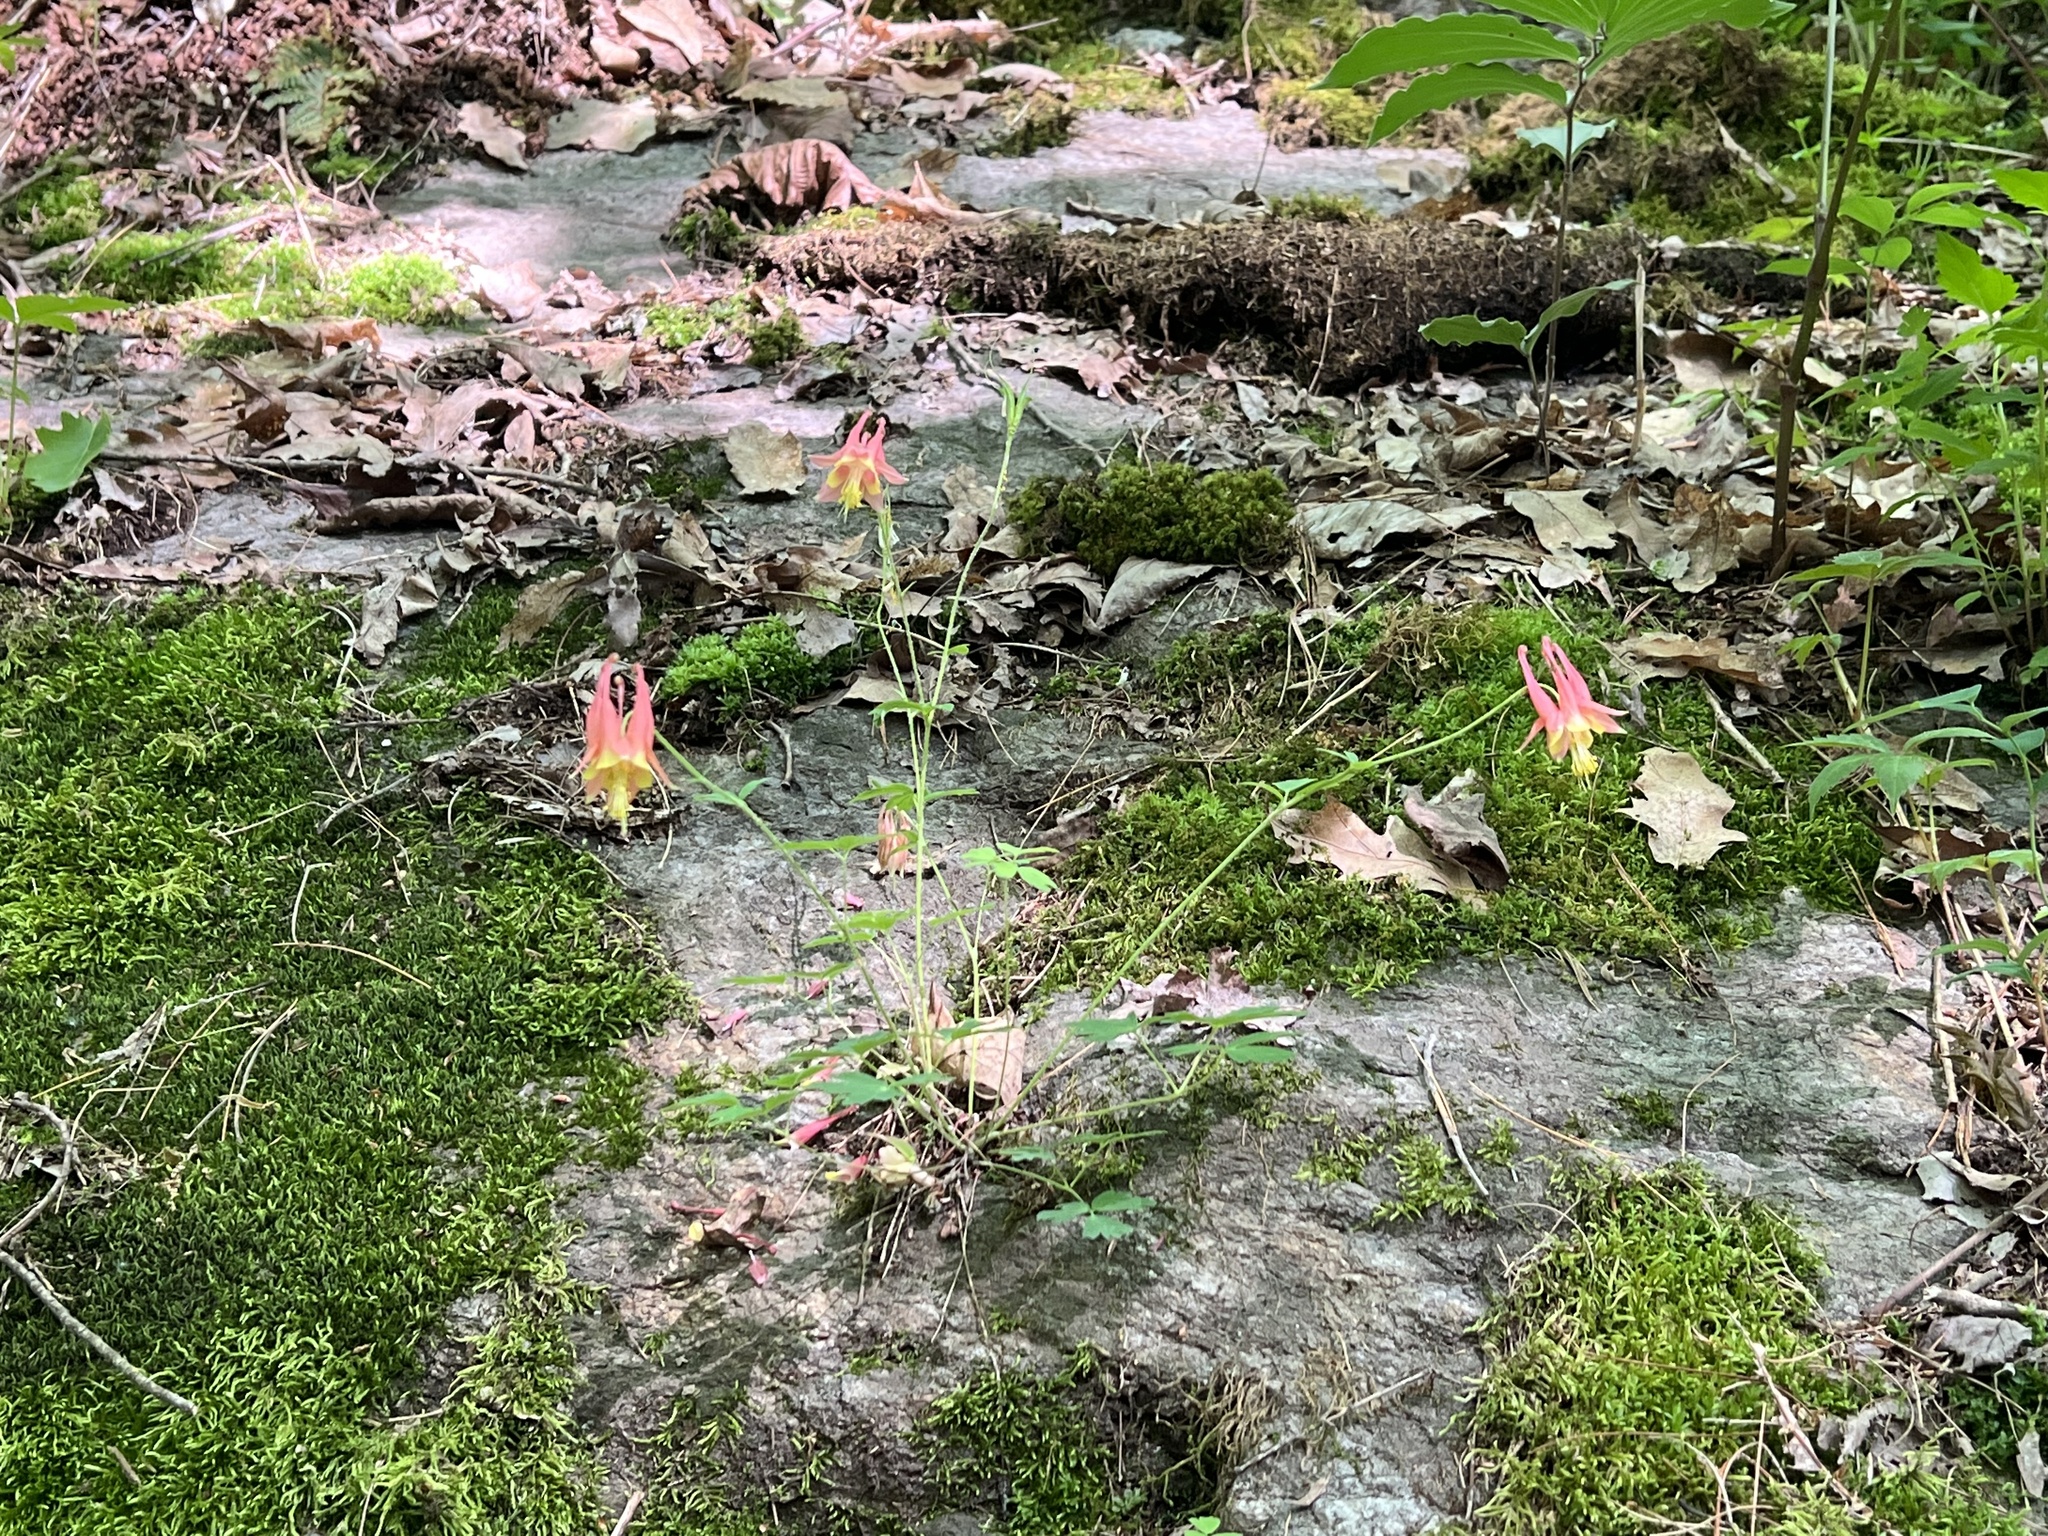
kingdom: Plantae
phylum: Tracheophyta
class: Magnoliopsida
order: Ranunculales
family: Ranunculaceae
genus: Aquilegia
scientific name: Aquilegia canadensis
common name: American columbine
